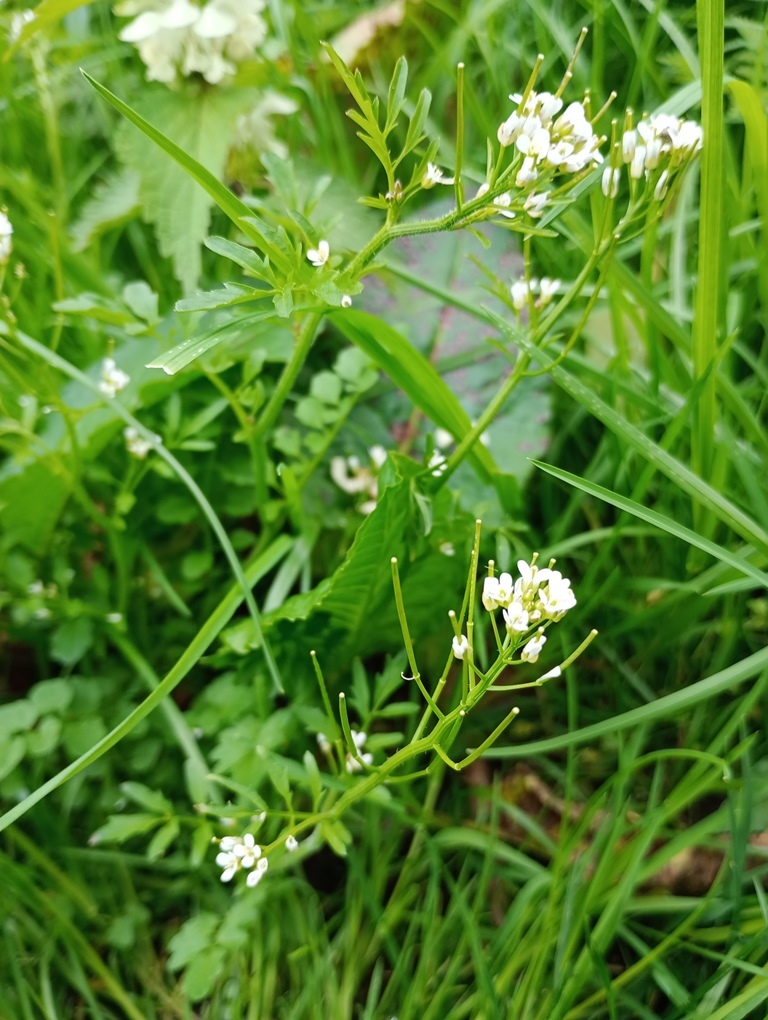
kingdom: Plantae
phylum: Tracheophyta
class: Magnoliopsida
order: Brassicales
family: Brassicaceae
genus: Cardamine
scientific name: Cardamine flexuosa
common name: Woodland bittercress
